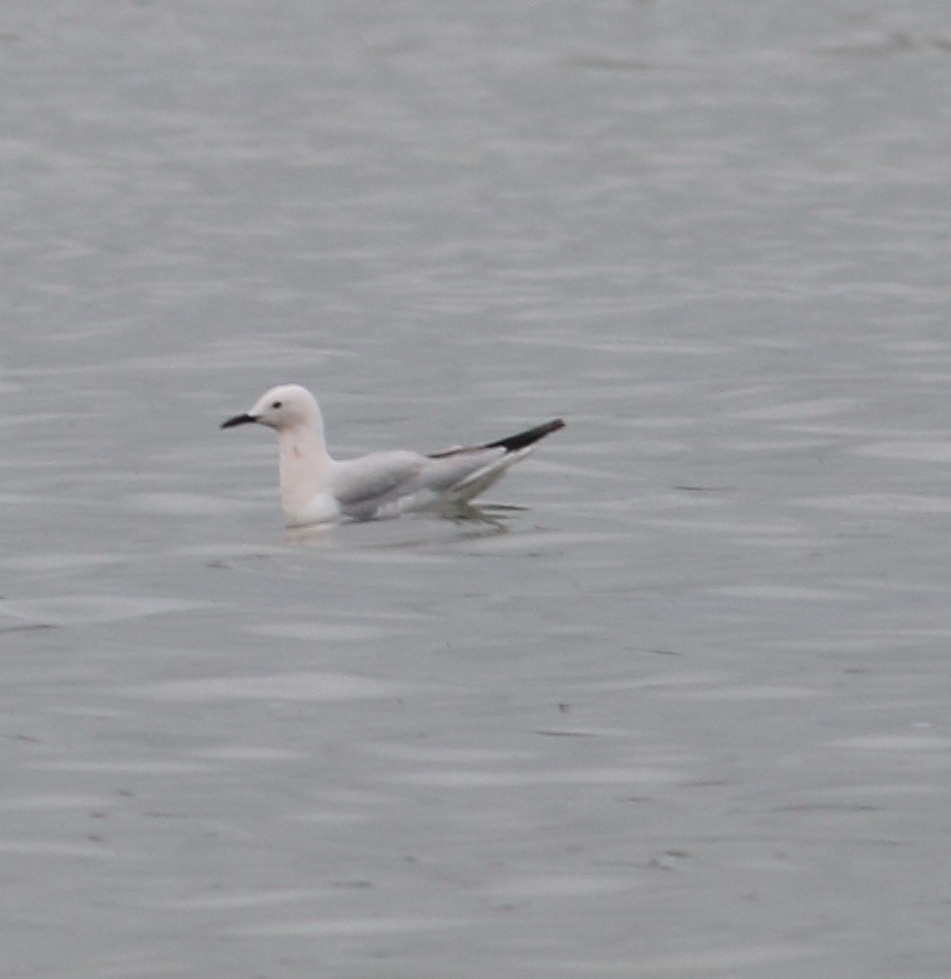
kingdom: Animalia
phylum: Chordata
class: Aves
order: Charadriiformes
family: Laridae
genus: Chroicocephalus
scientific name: Chroicocephalus genei
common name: Slender-billed gull
